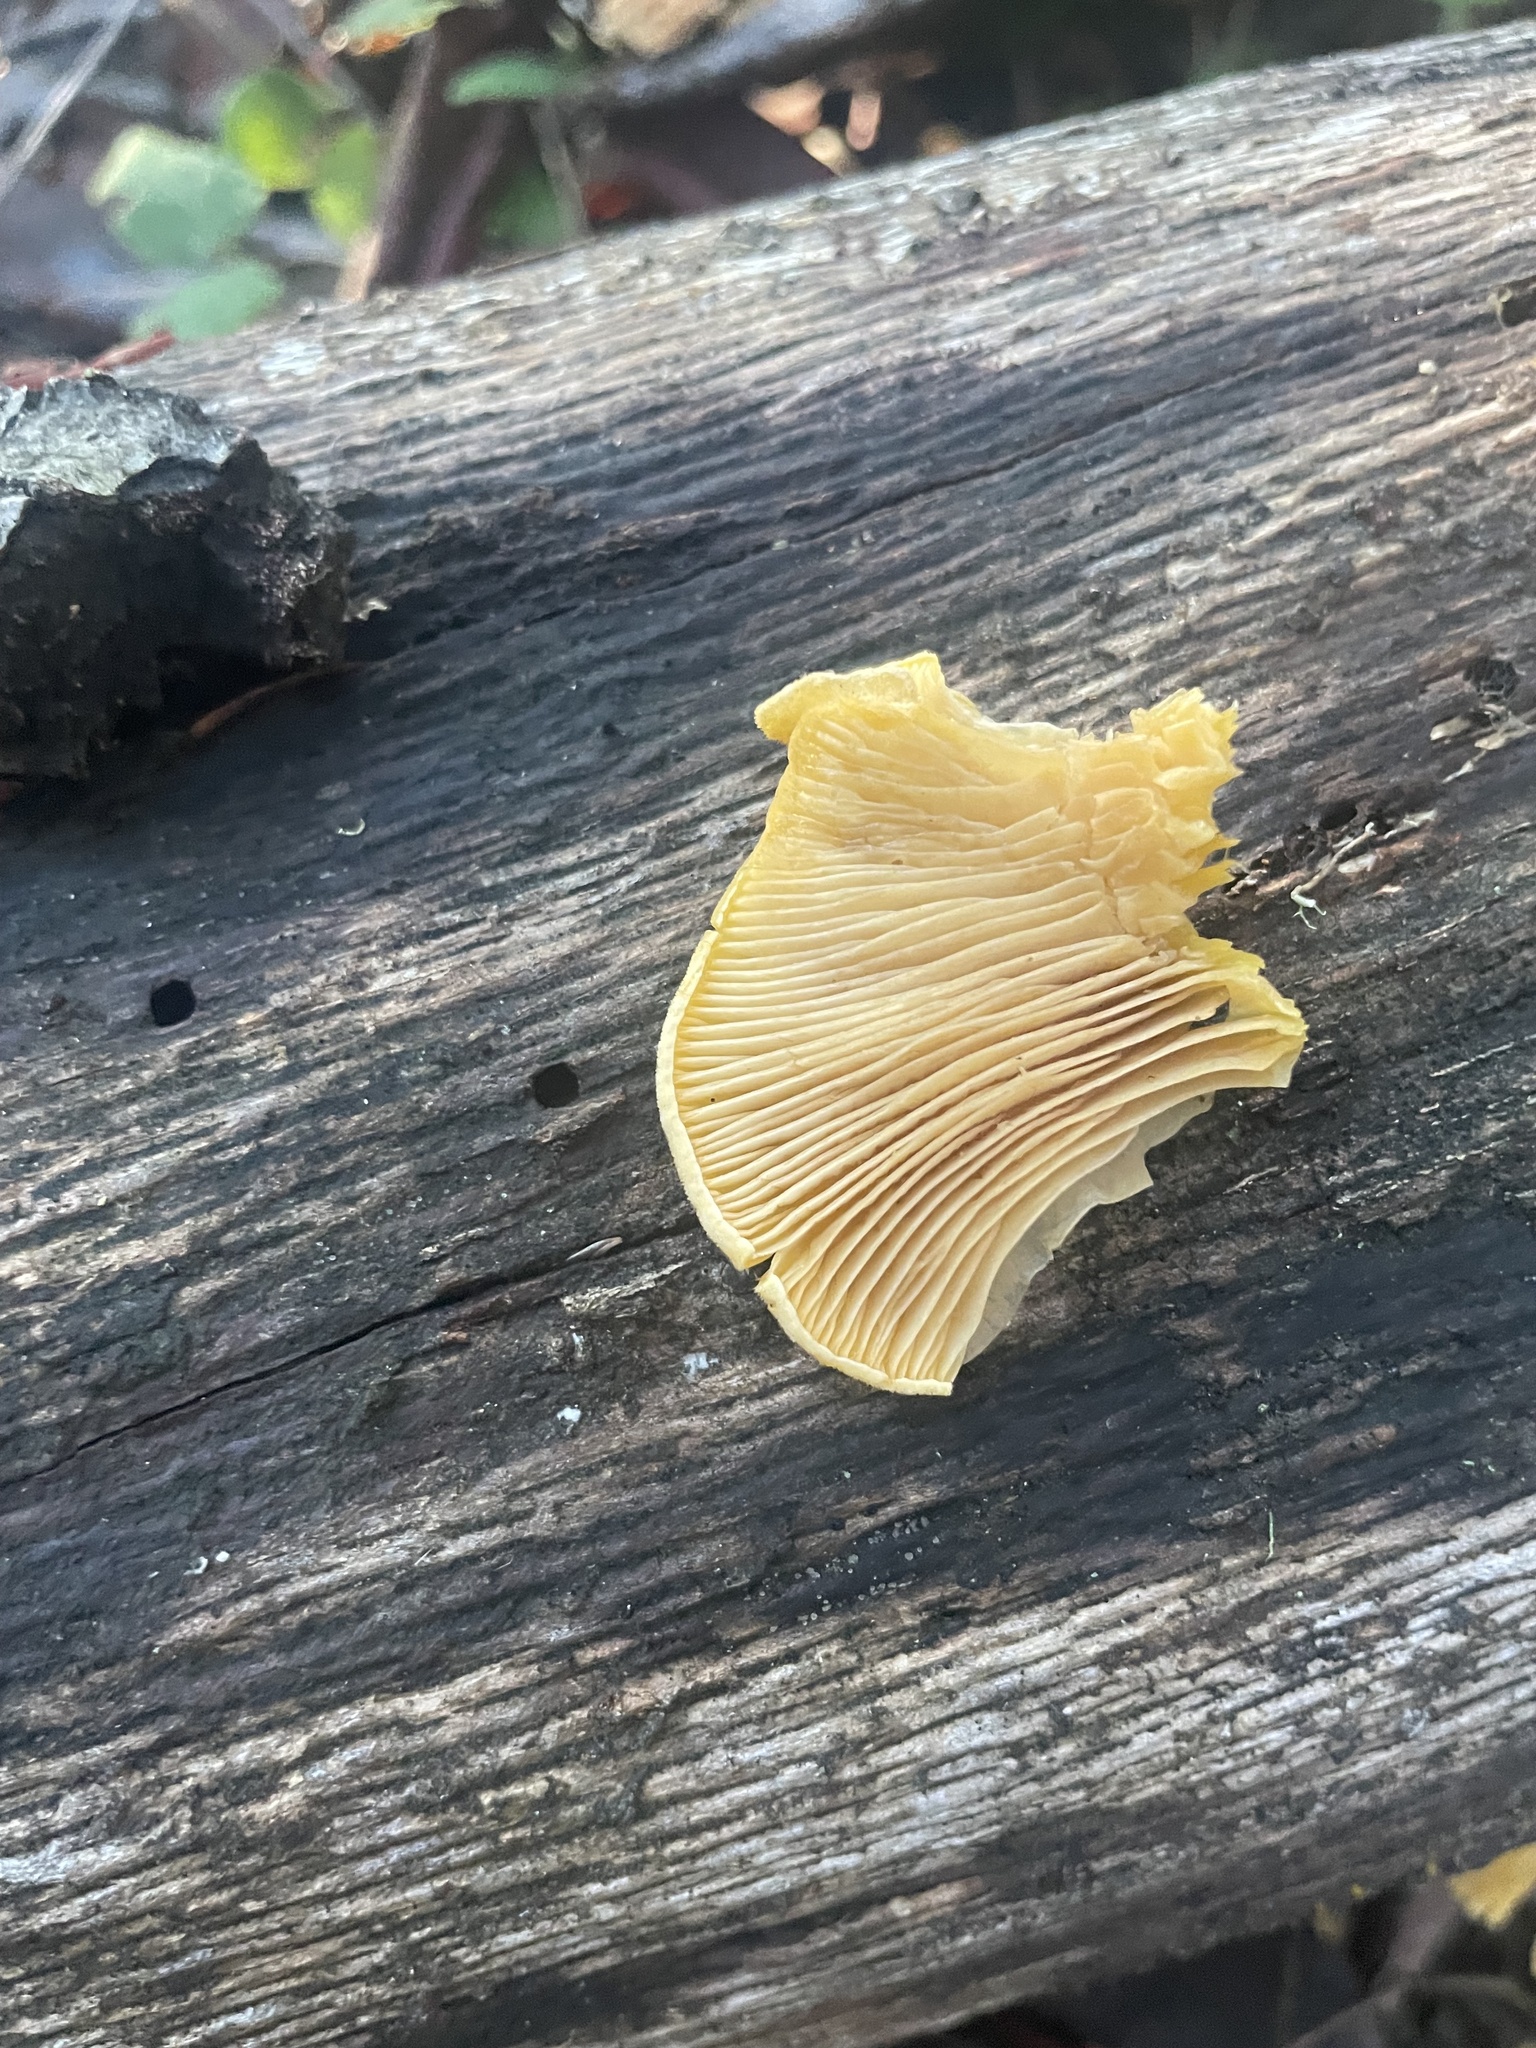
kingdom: Fungi
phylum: Basidiomycota
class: Agaricomycetes
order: Agaricales
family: Phyllotopsidaceae
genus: Phyllotopsis
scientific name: Phyllotopsis nidulans
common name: Orange mock oyster
